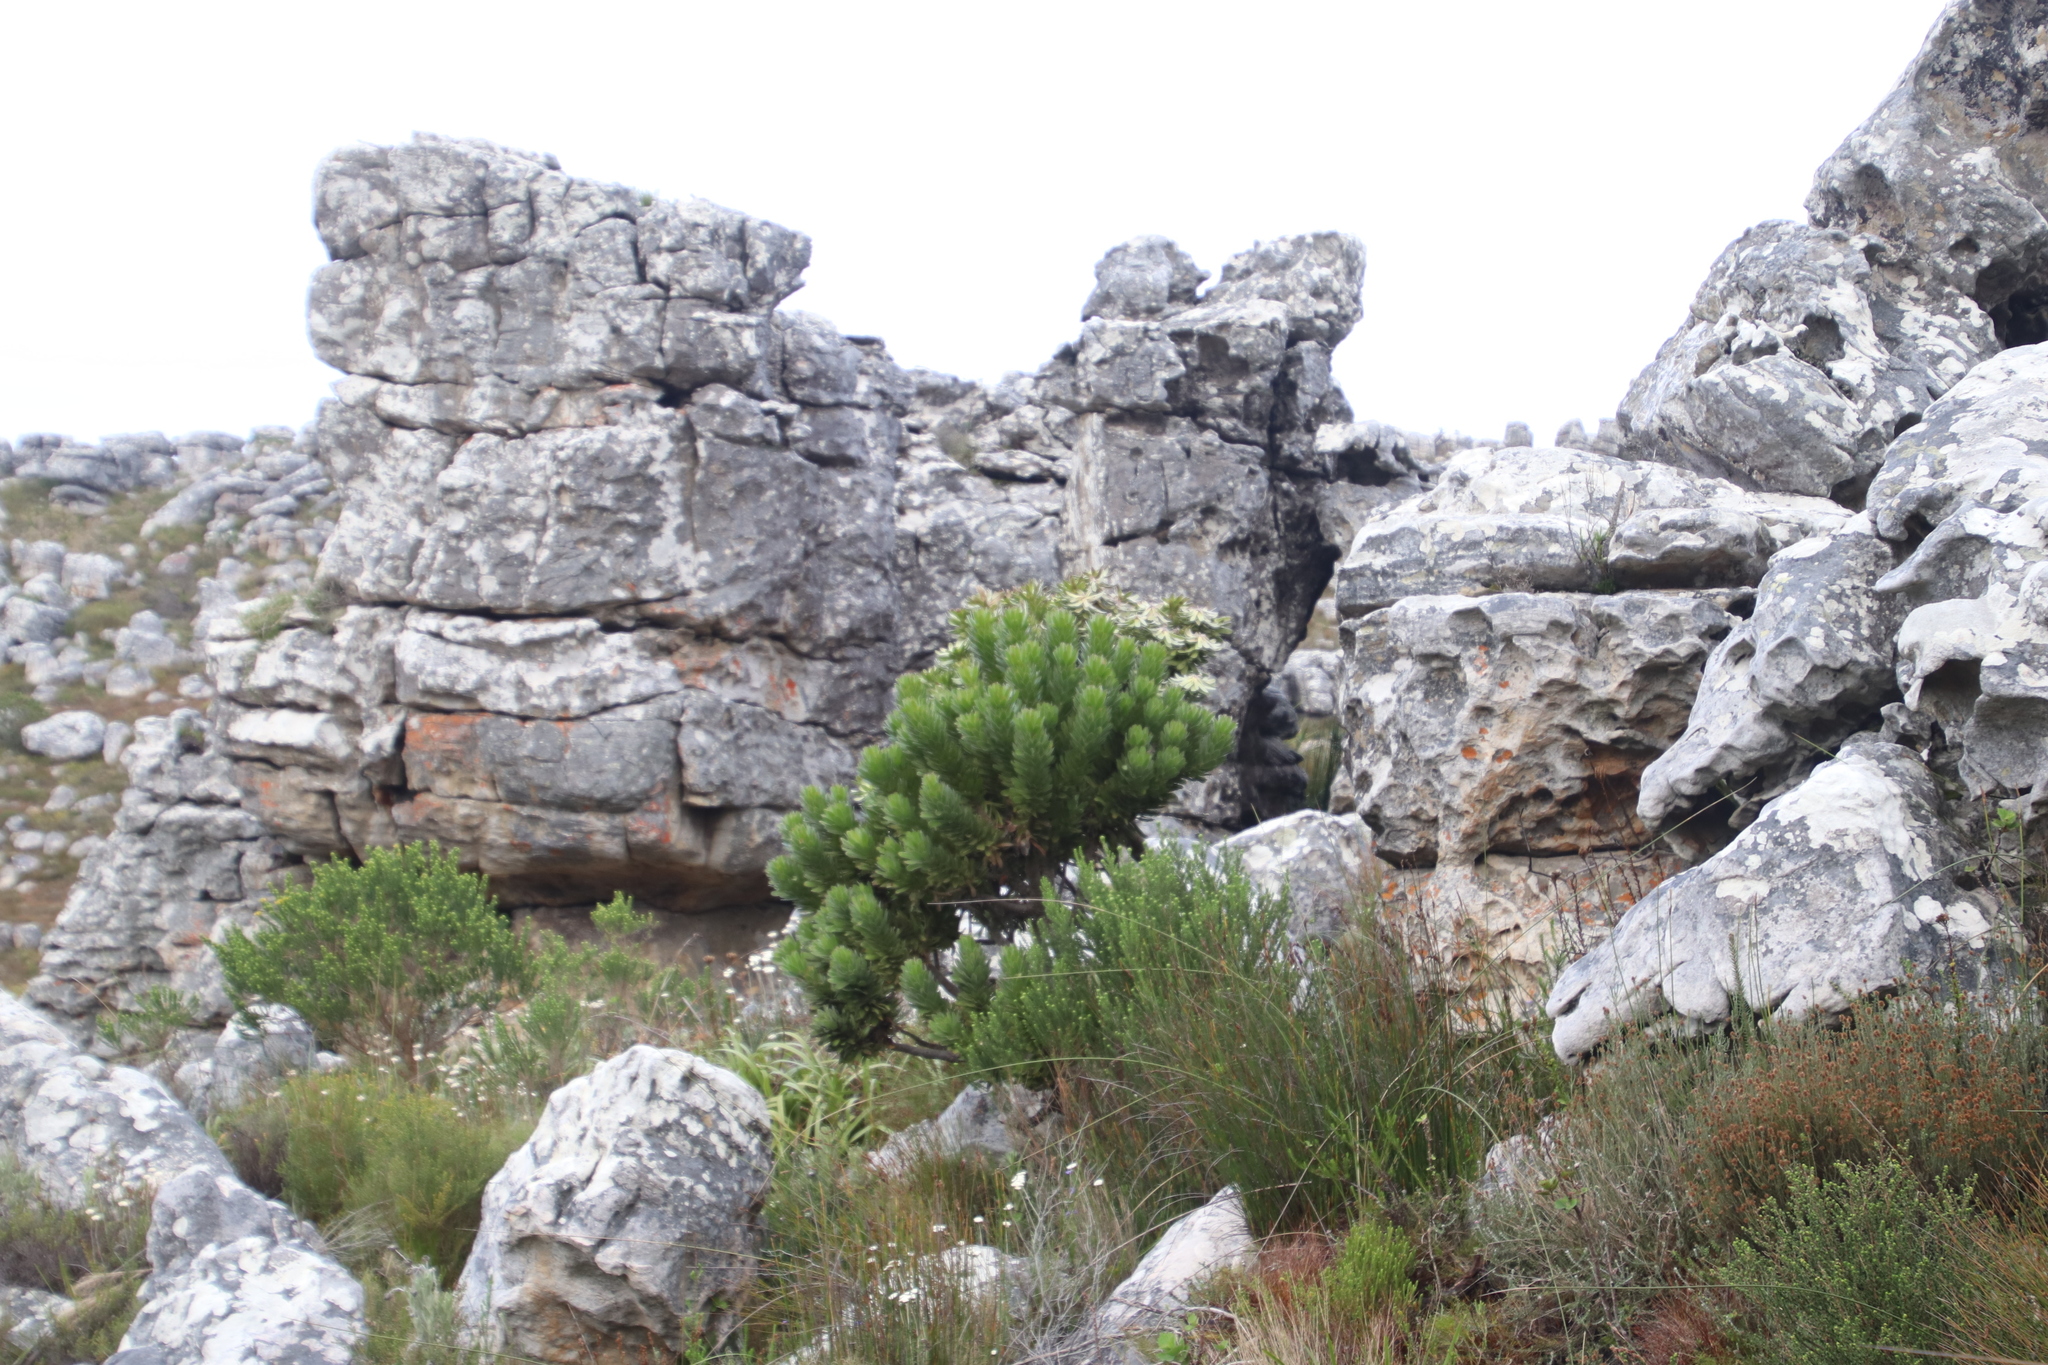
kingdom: Plantae
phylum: Tracheophyta
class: Magnoliopsida
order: Proteales
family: Proteaceae
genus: Mimetes
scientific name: Mimetes fimbriifolius
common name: Fringed bottlebrush
